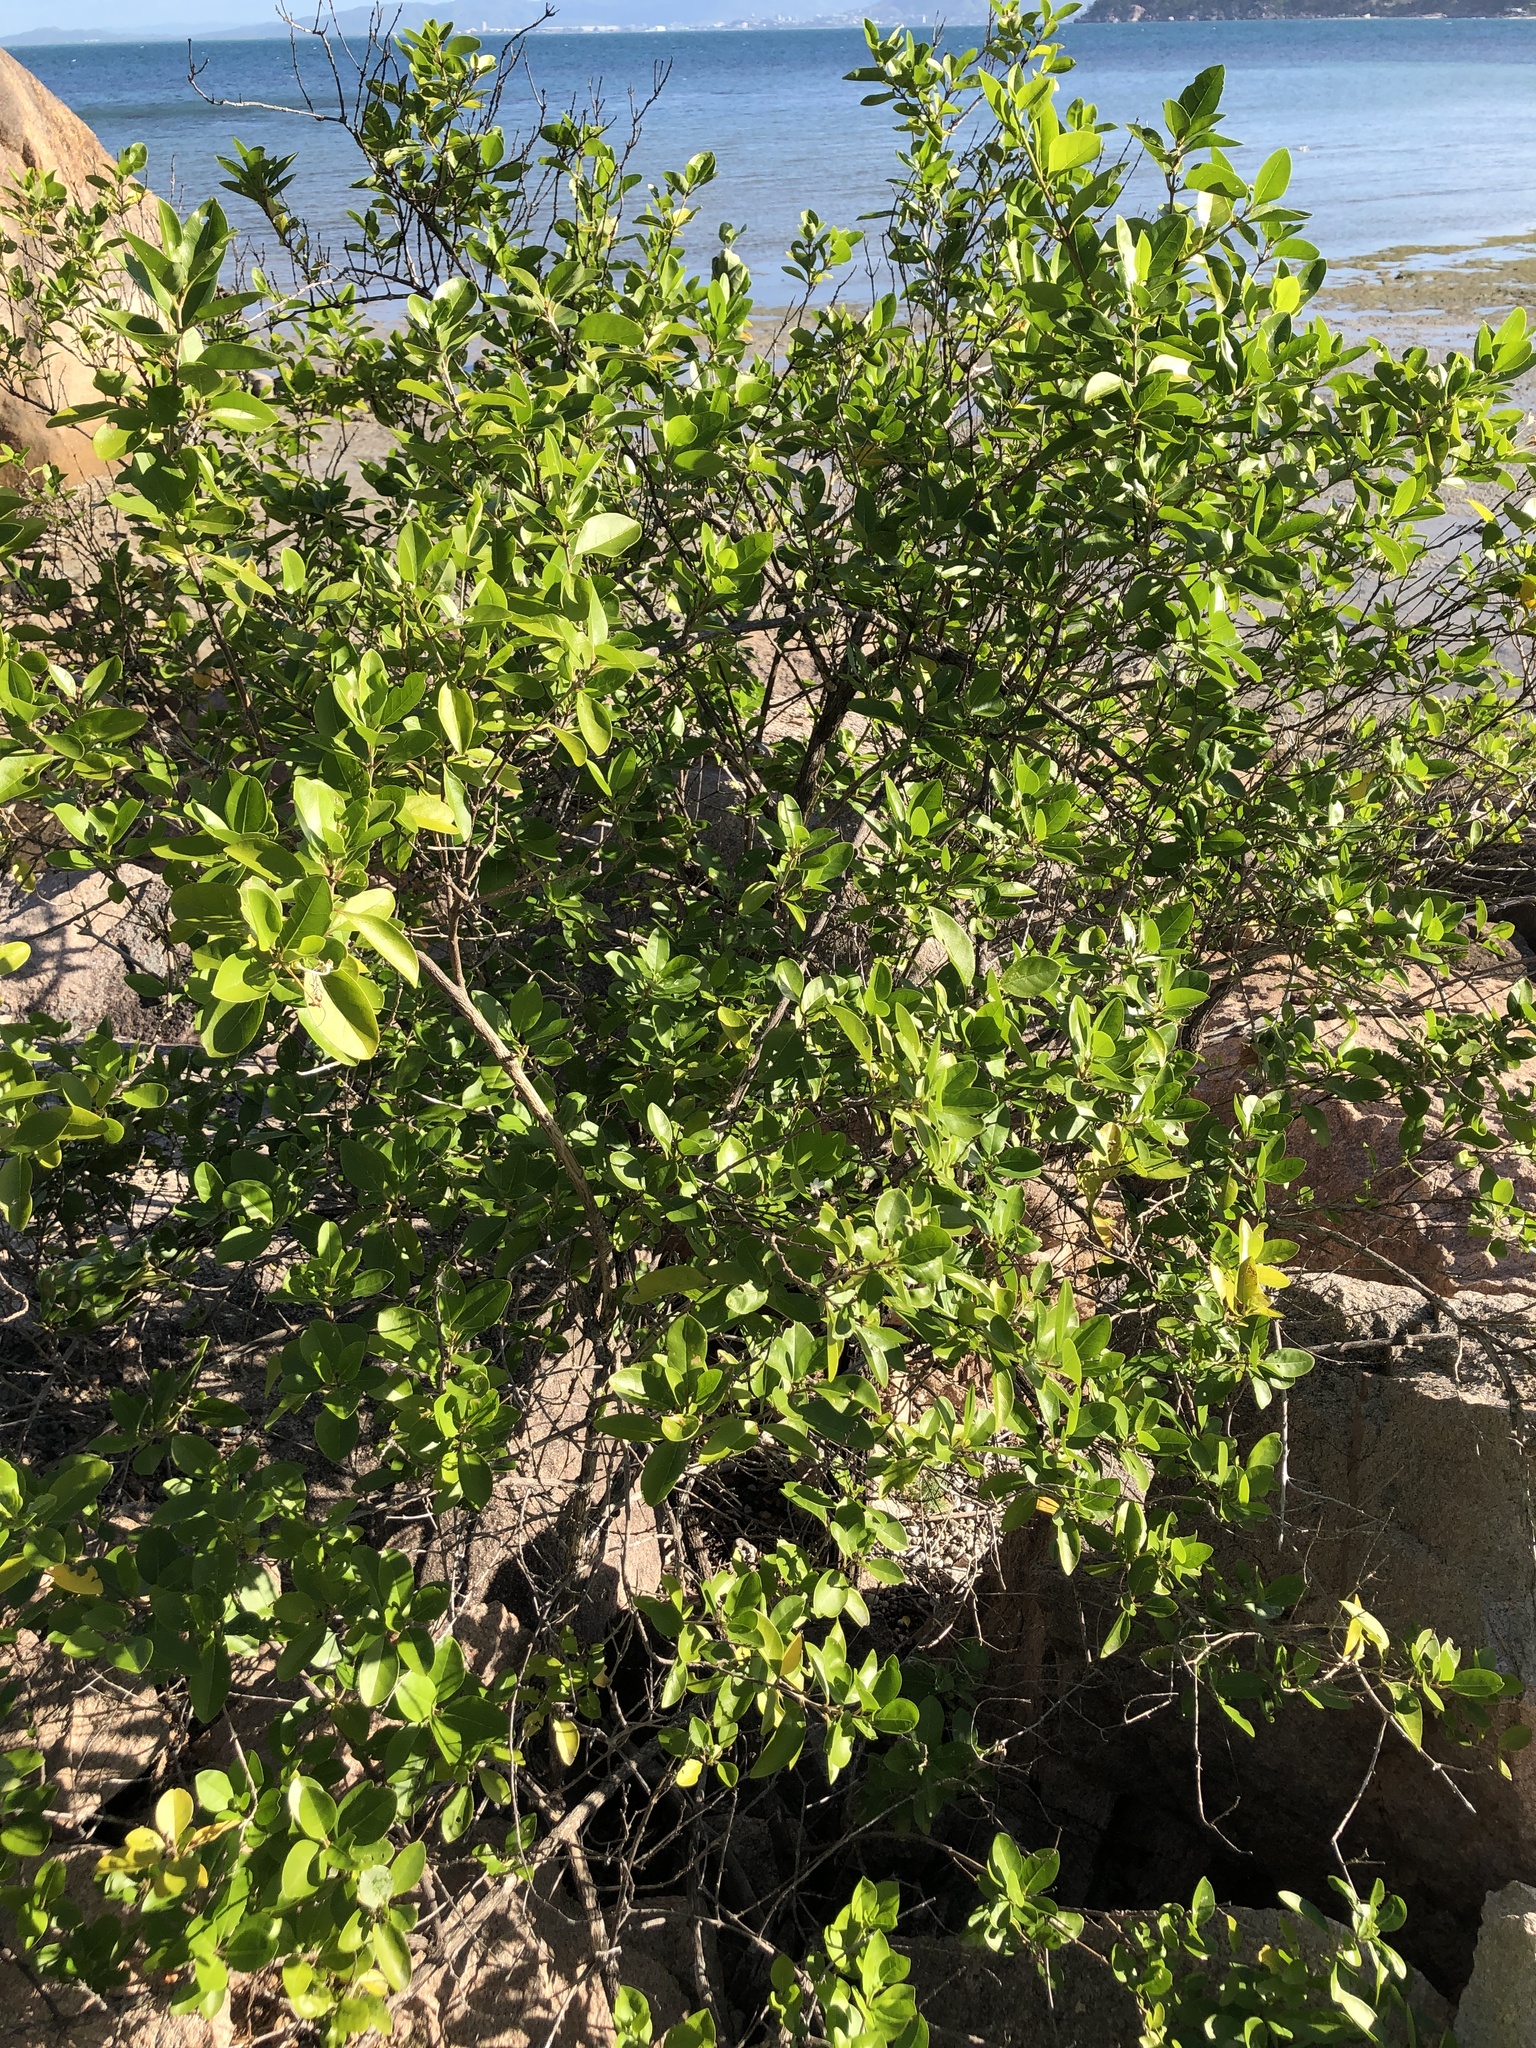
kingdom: Plantae
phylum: Tracheophyta
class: Magnoliopsida
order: Lamiales
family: Lamiaceae
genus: Volkameria
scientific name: Volkameria inermis
